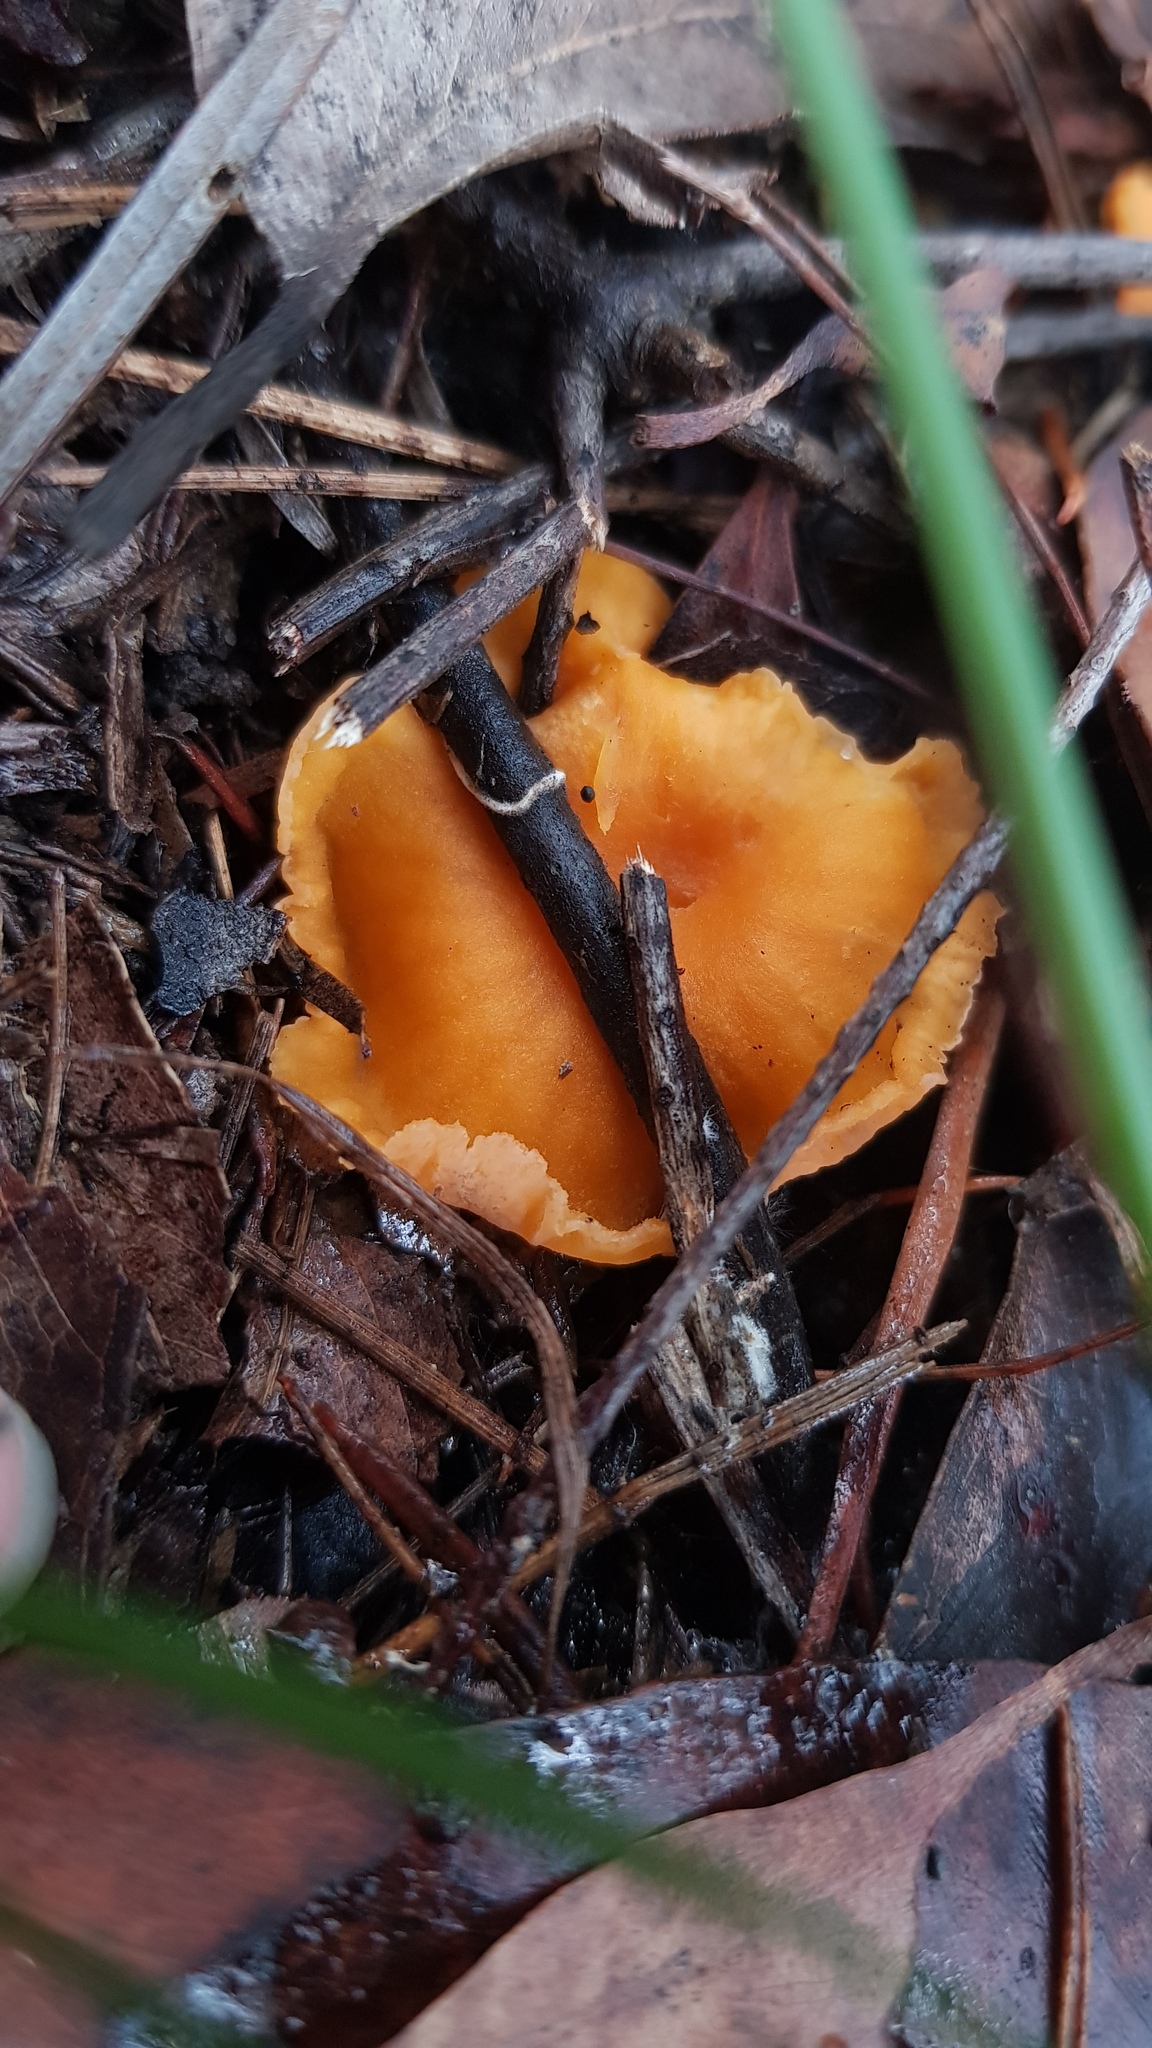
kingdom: Fungi
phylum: Basidiomycota
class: Agaricomycetes
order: Cantharellales
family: Hydnaceae
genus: Cantharellus
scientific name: Cantharellus
